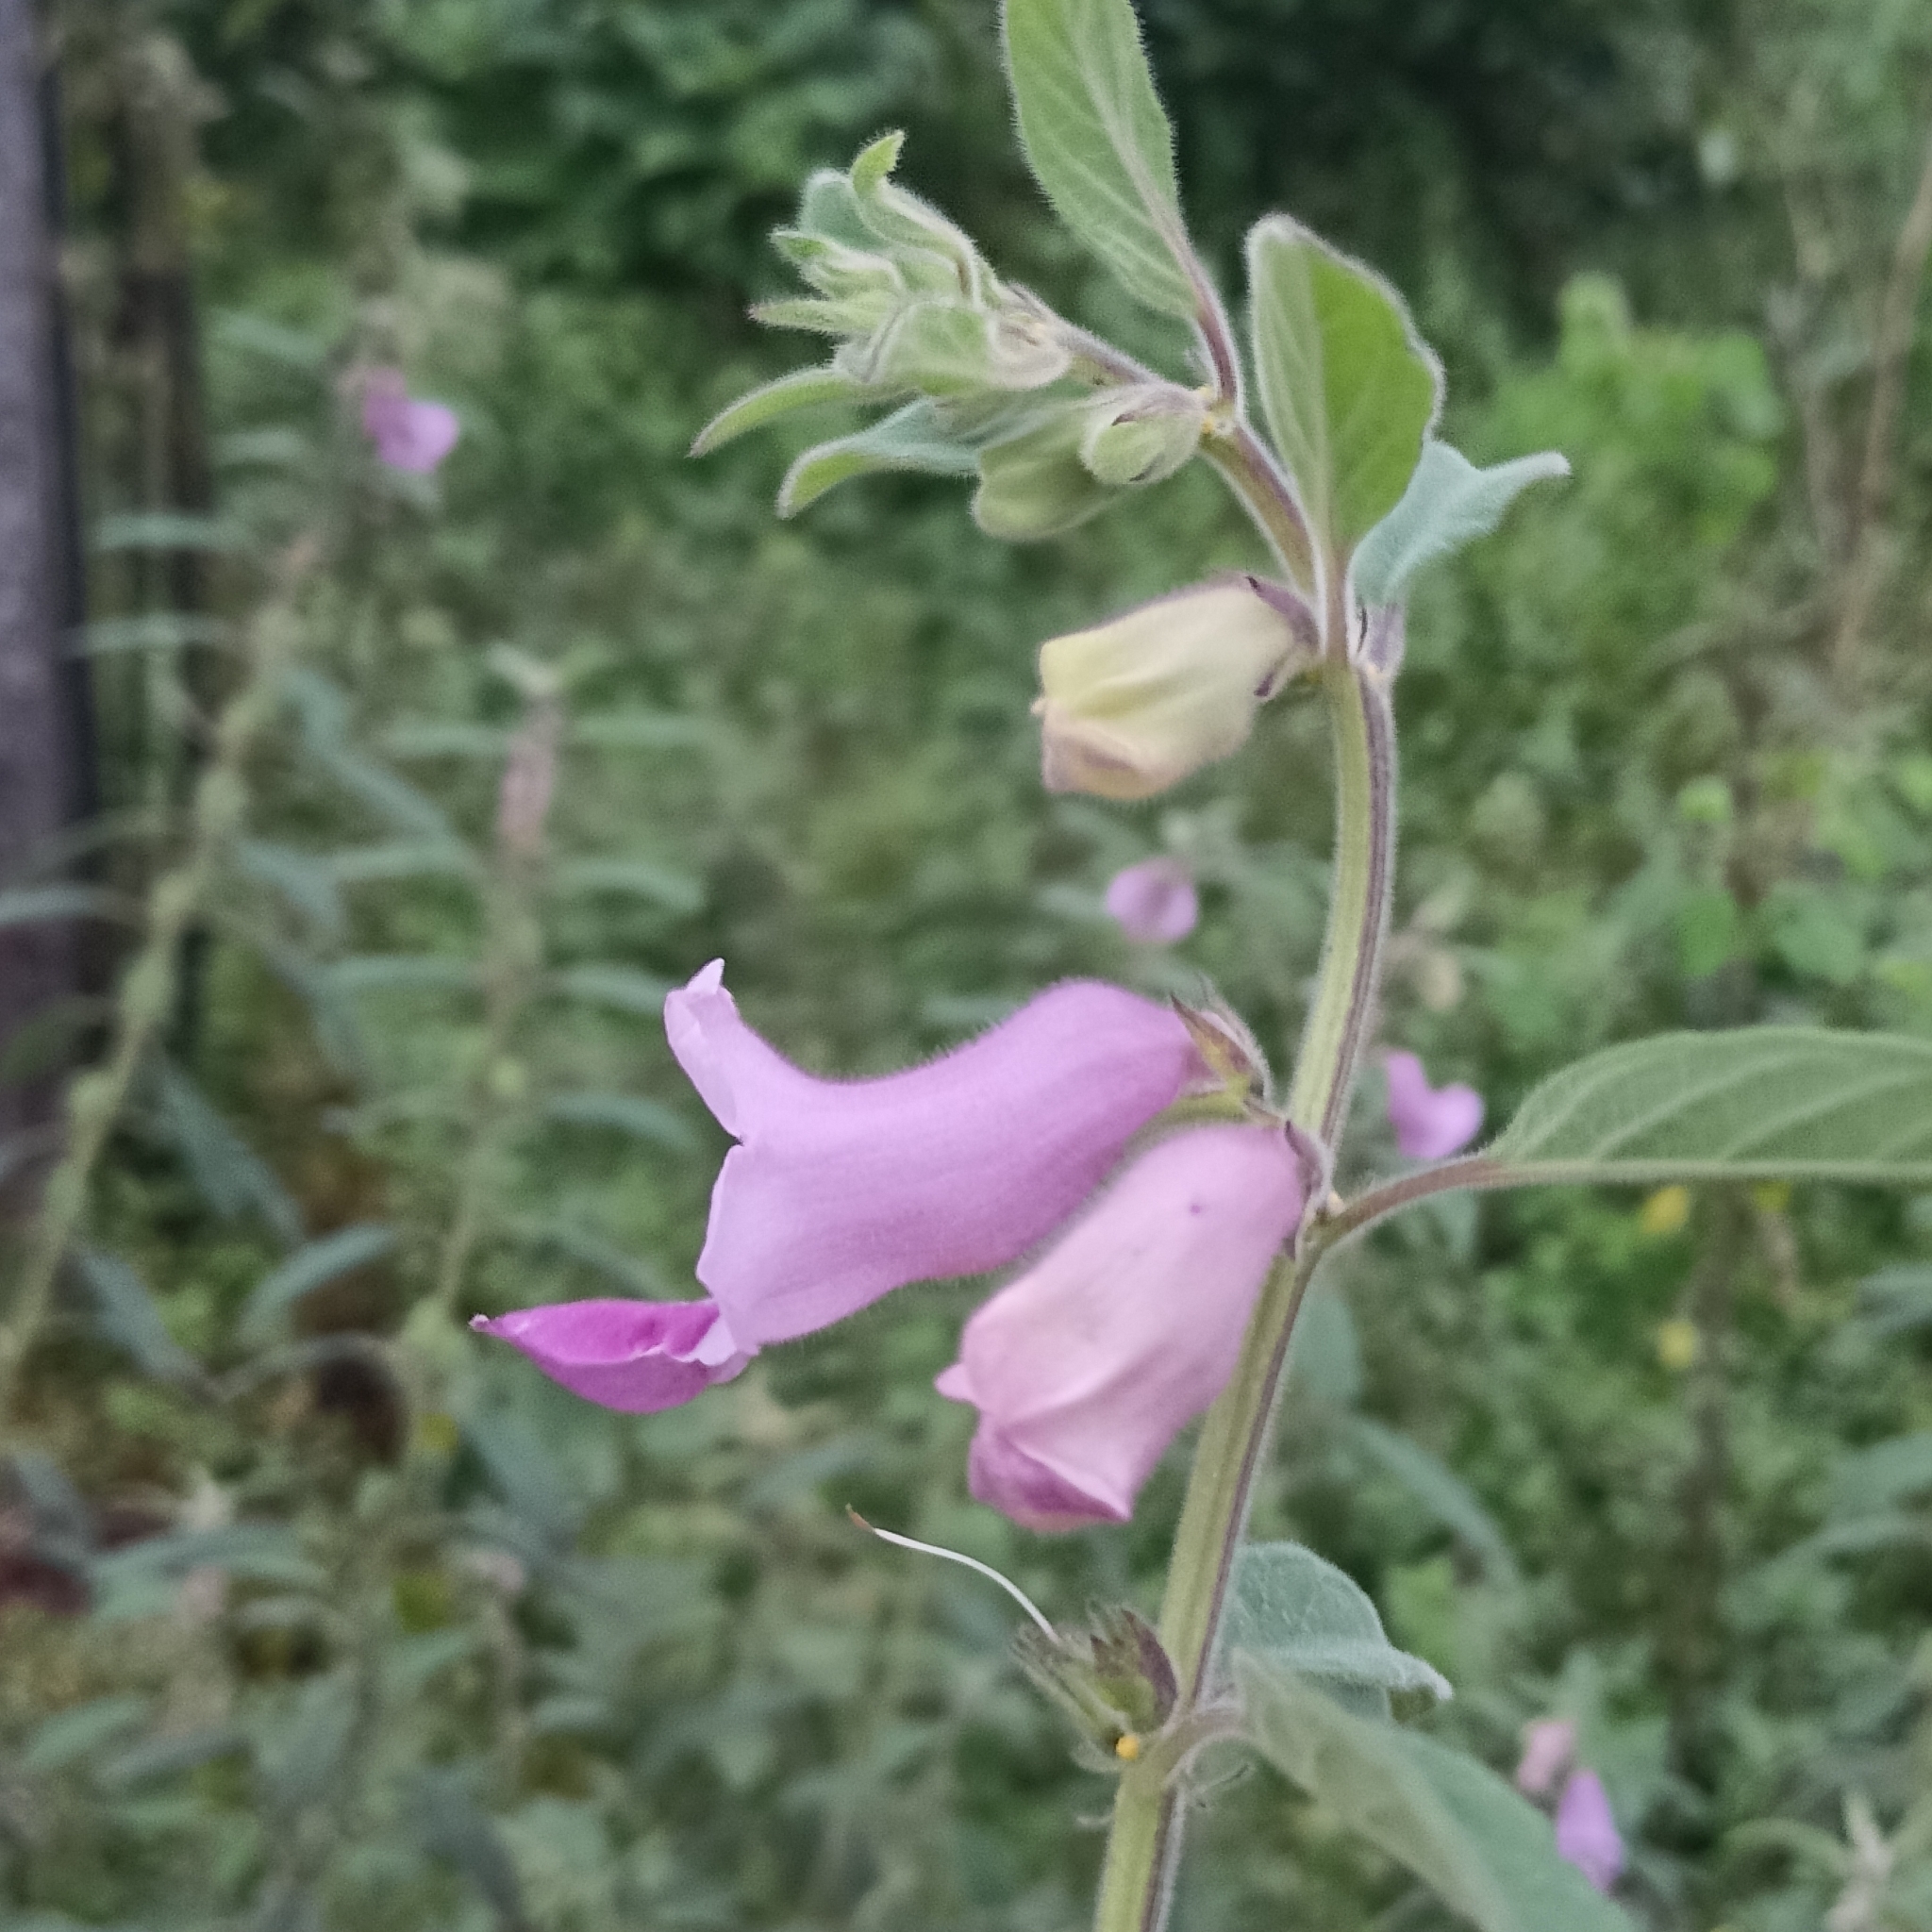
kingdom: Plantae
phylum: Tracheophyta
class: Magnoliopsida
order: Lamiales
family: Pedaliaceae
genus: Sesamum
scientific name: Sesamum indicum
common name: Sesame
